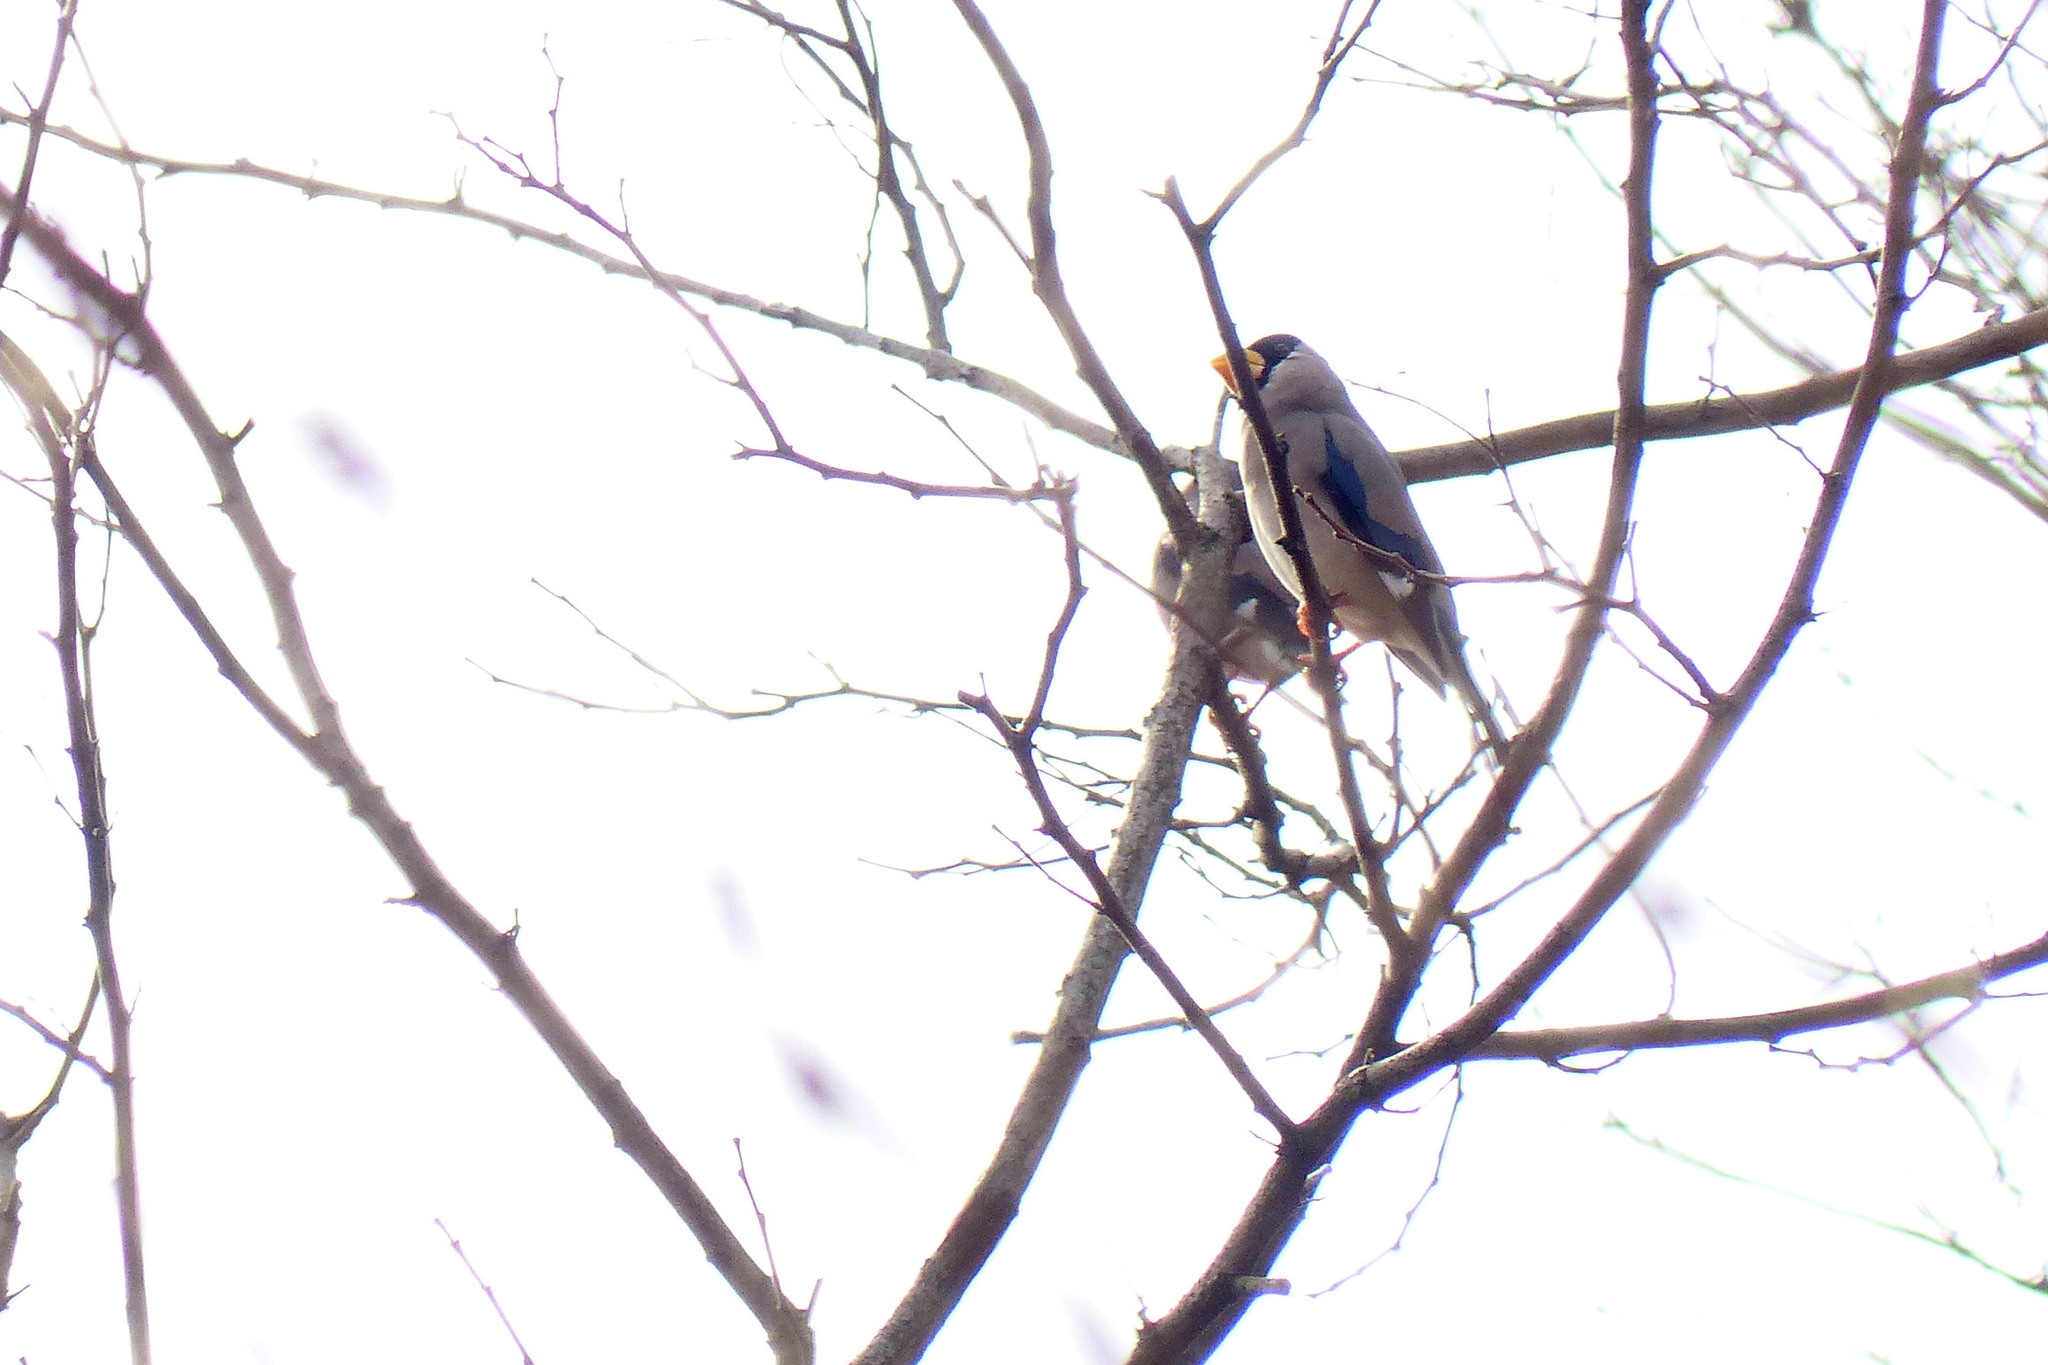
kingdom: Animalia
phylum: Chordata
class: Aves
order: Passeriformes
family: Fringillidae
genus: Eophona
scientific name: Eophona personata
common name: Japanese grosbeak
